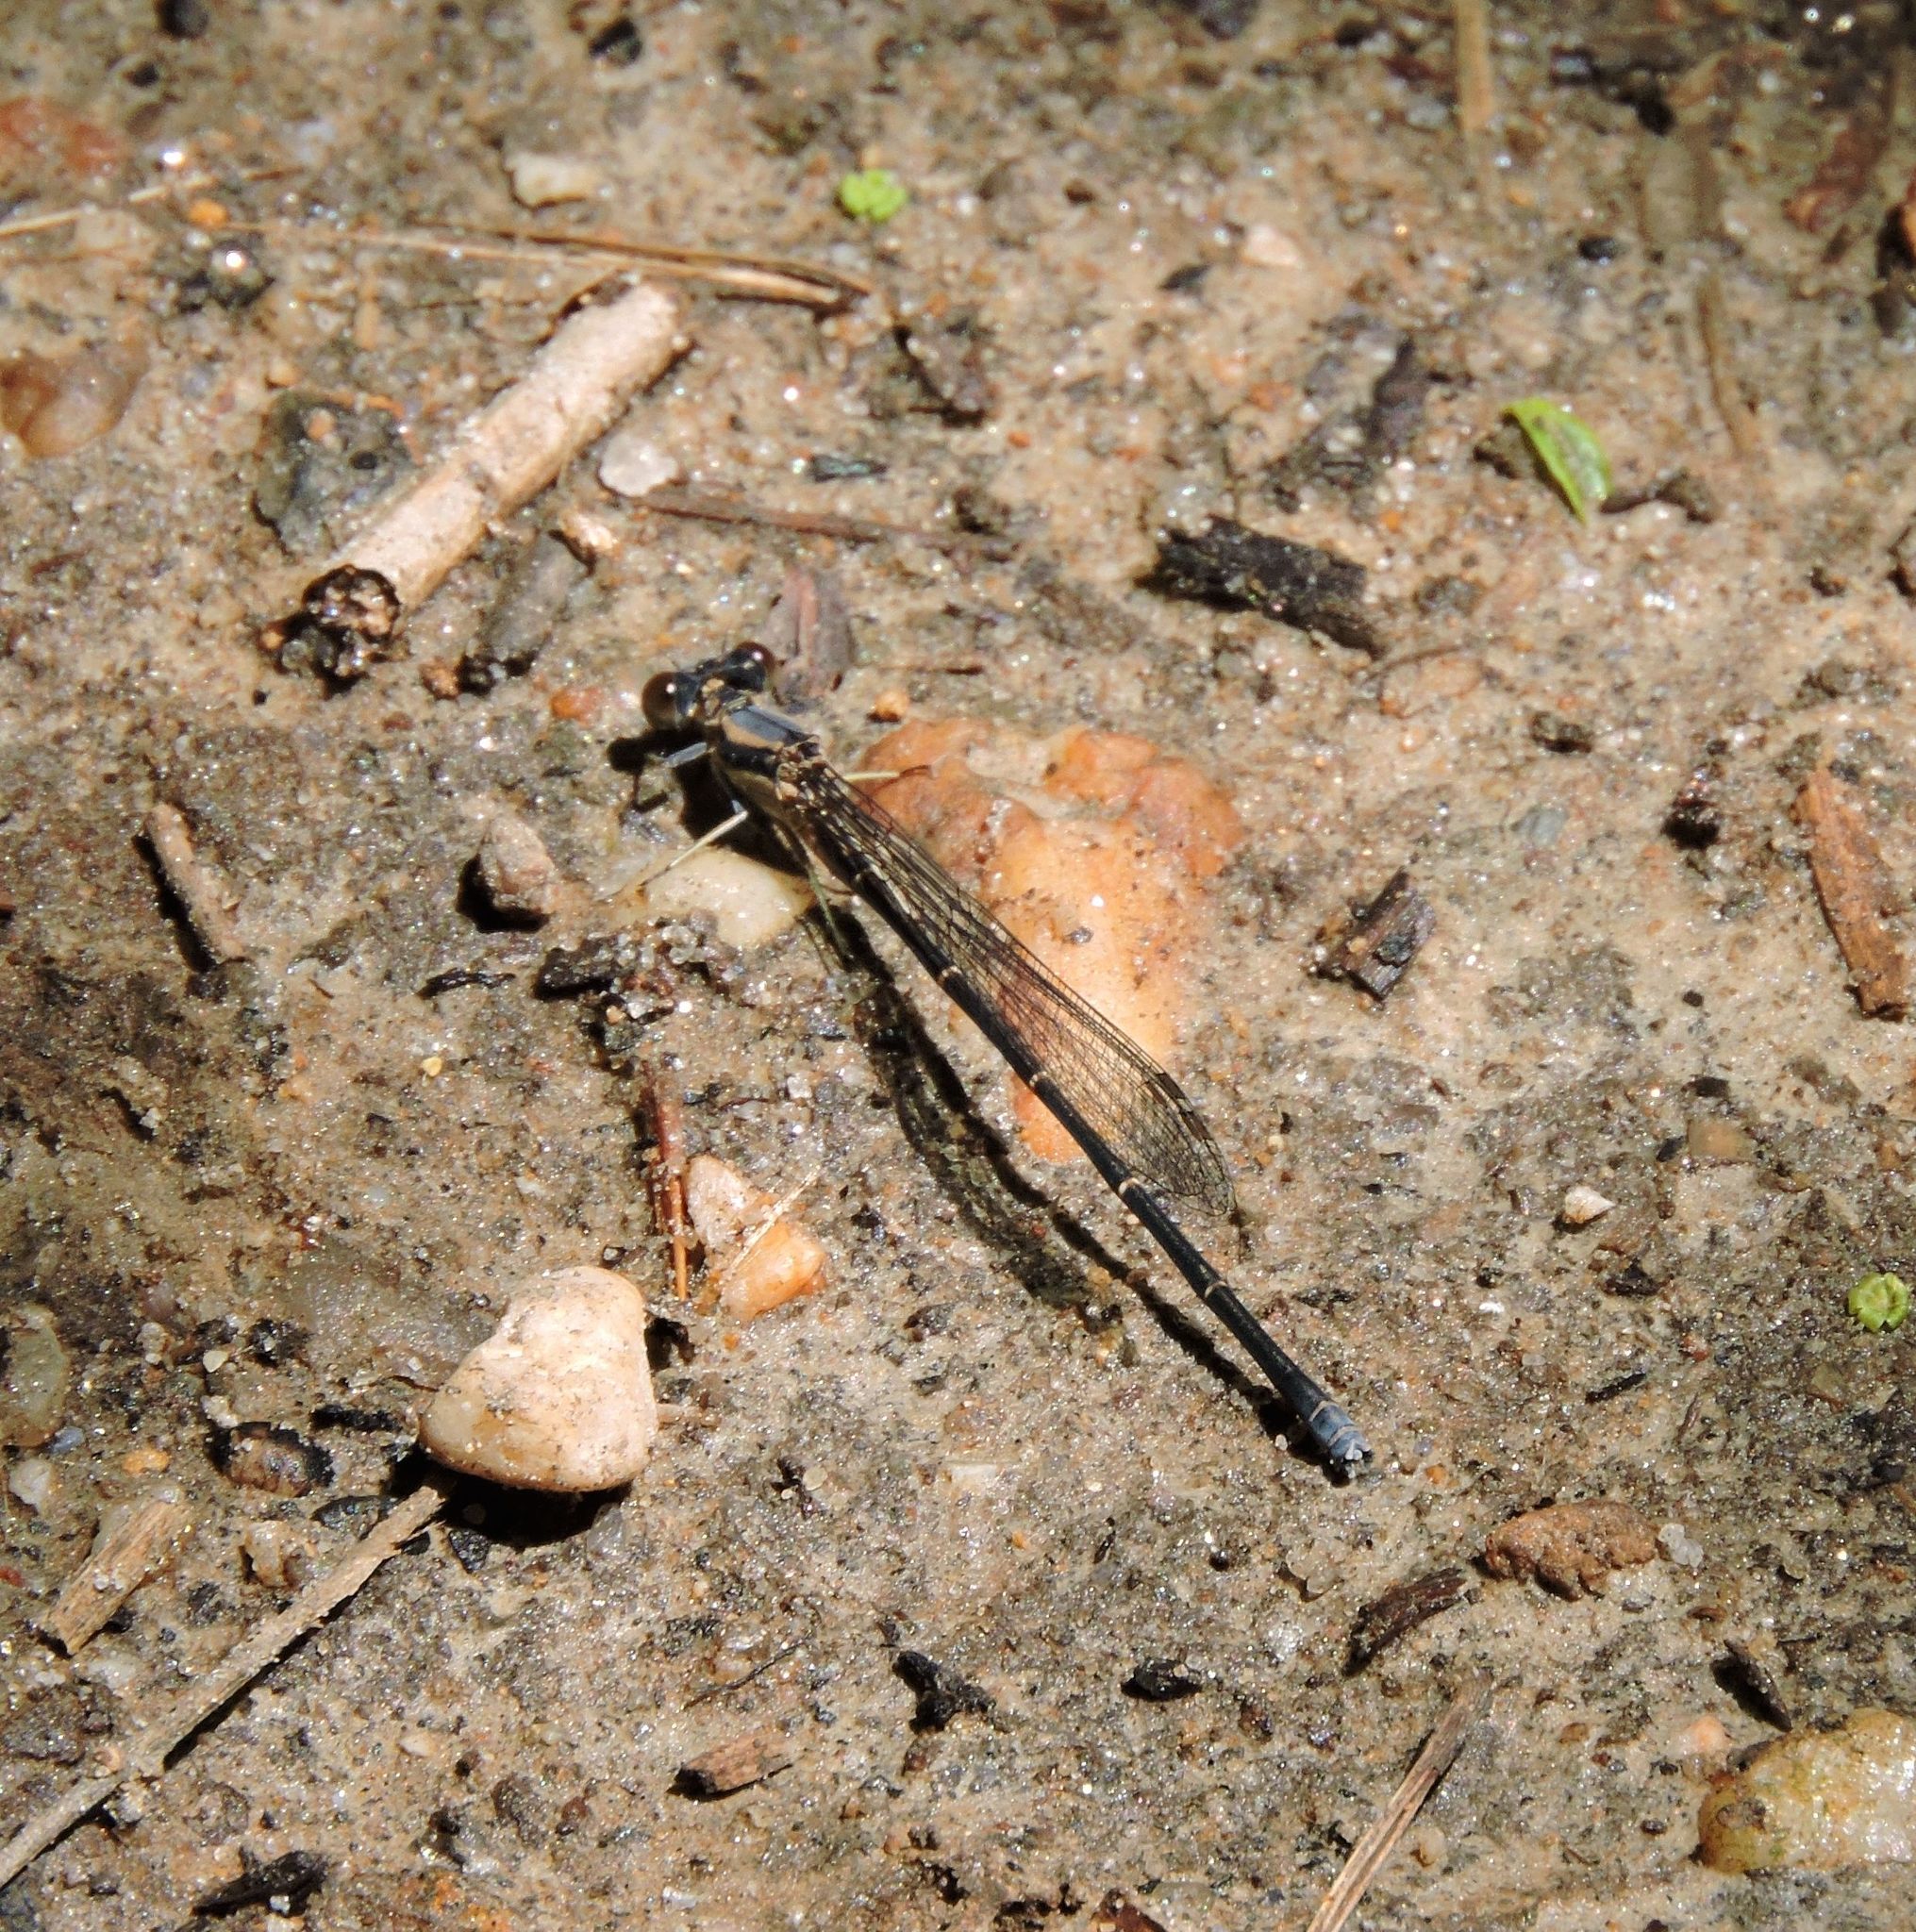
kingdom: Animalia
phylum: Arthropoda
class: Insecta
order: Odonata
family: Coenagrionidae
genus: Argia
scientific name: Argia moesta
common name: Powdered dancer
